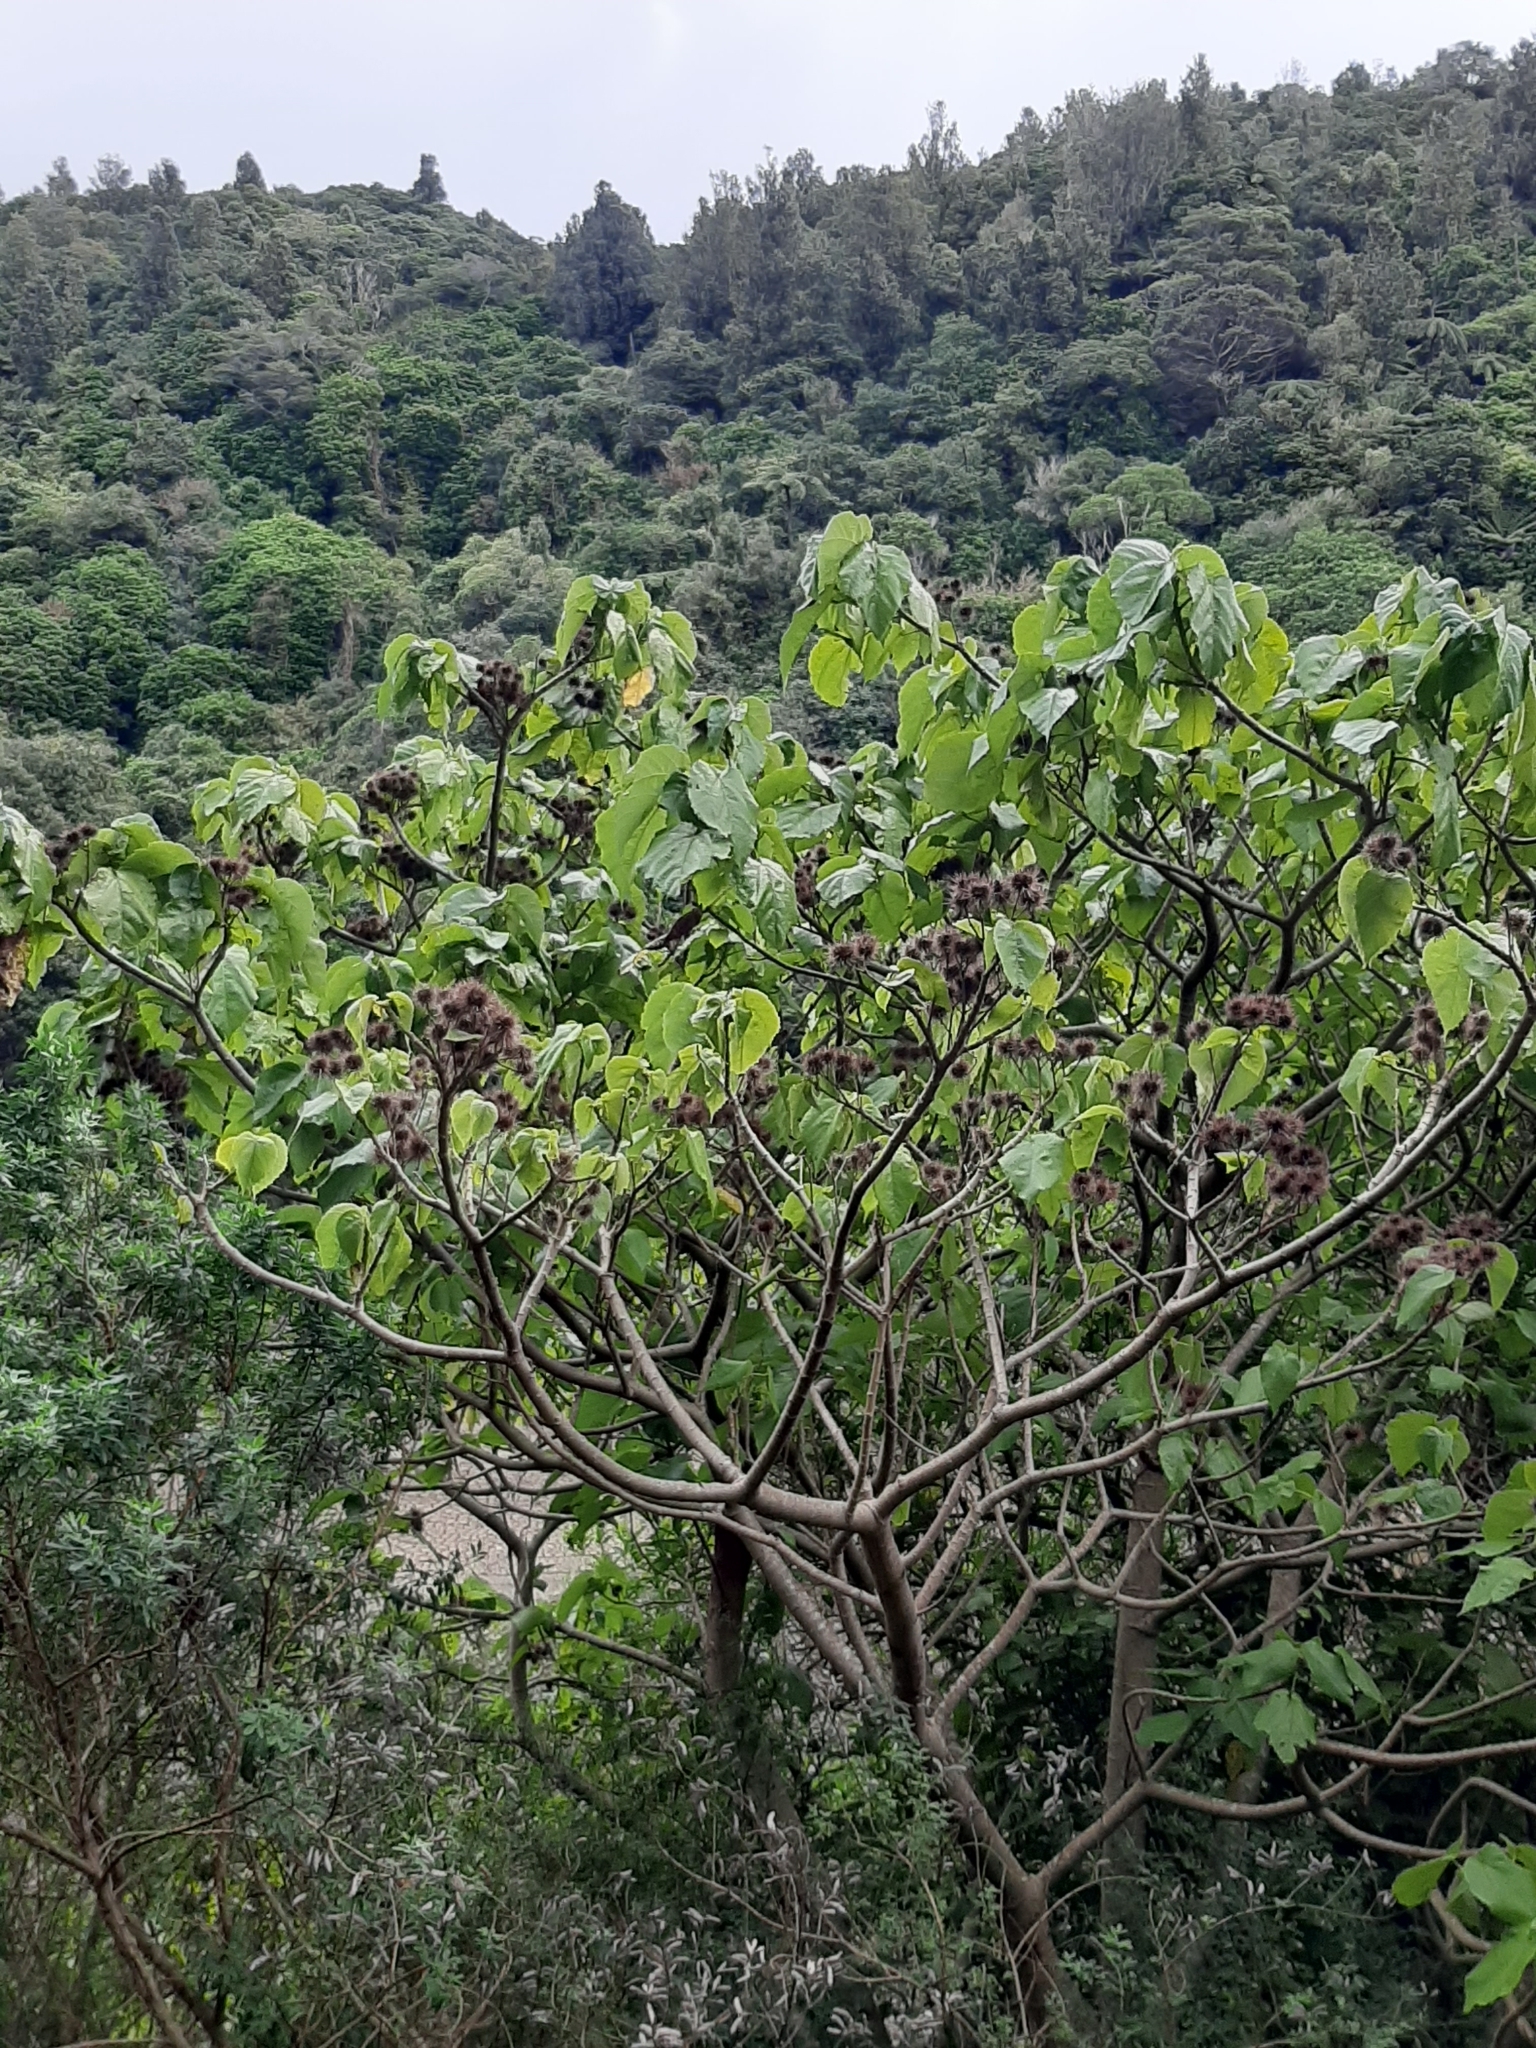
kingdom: Plantae
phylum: Tracheophyta
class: Magnoliopsida
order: Malvales
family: Malvaceae
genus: Entelea
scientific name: Entelea arborescens
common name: New zealand-mulberry
